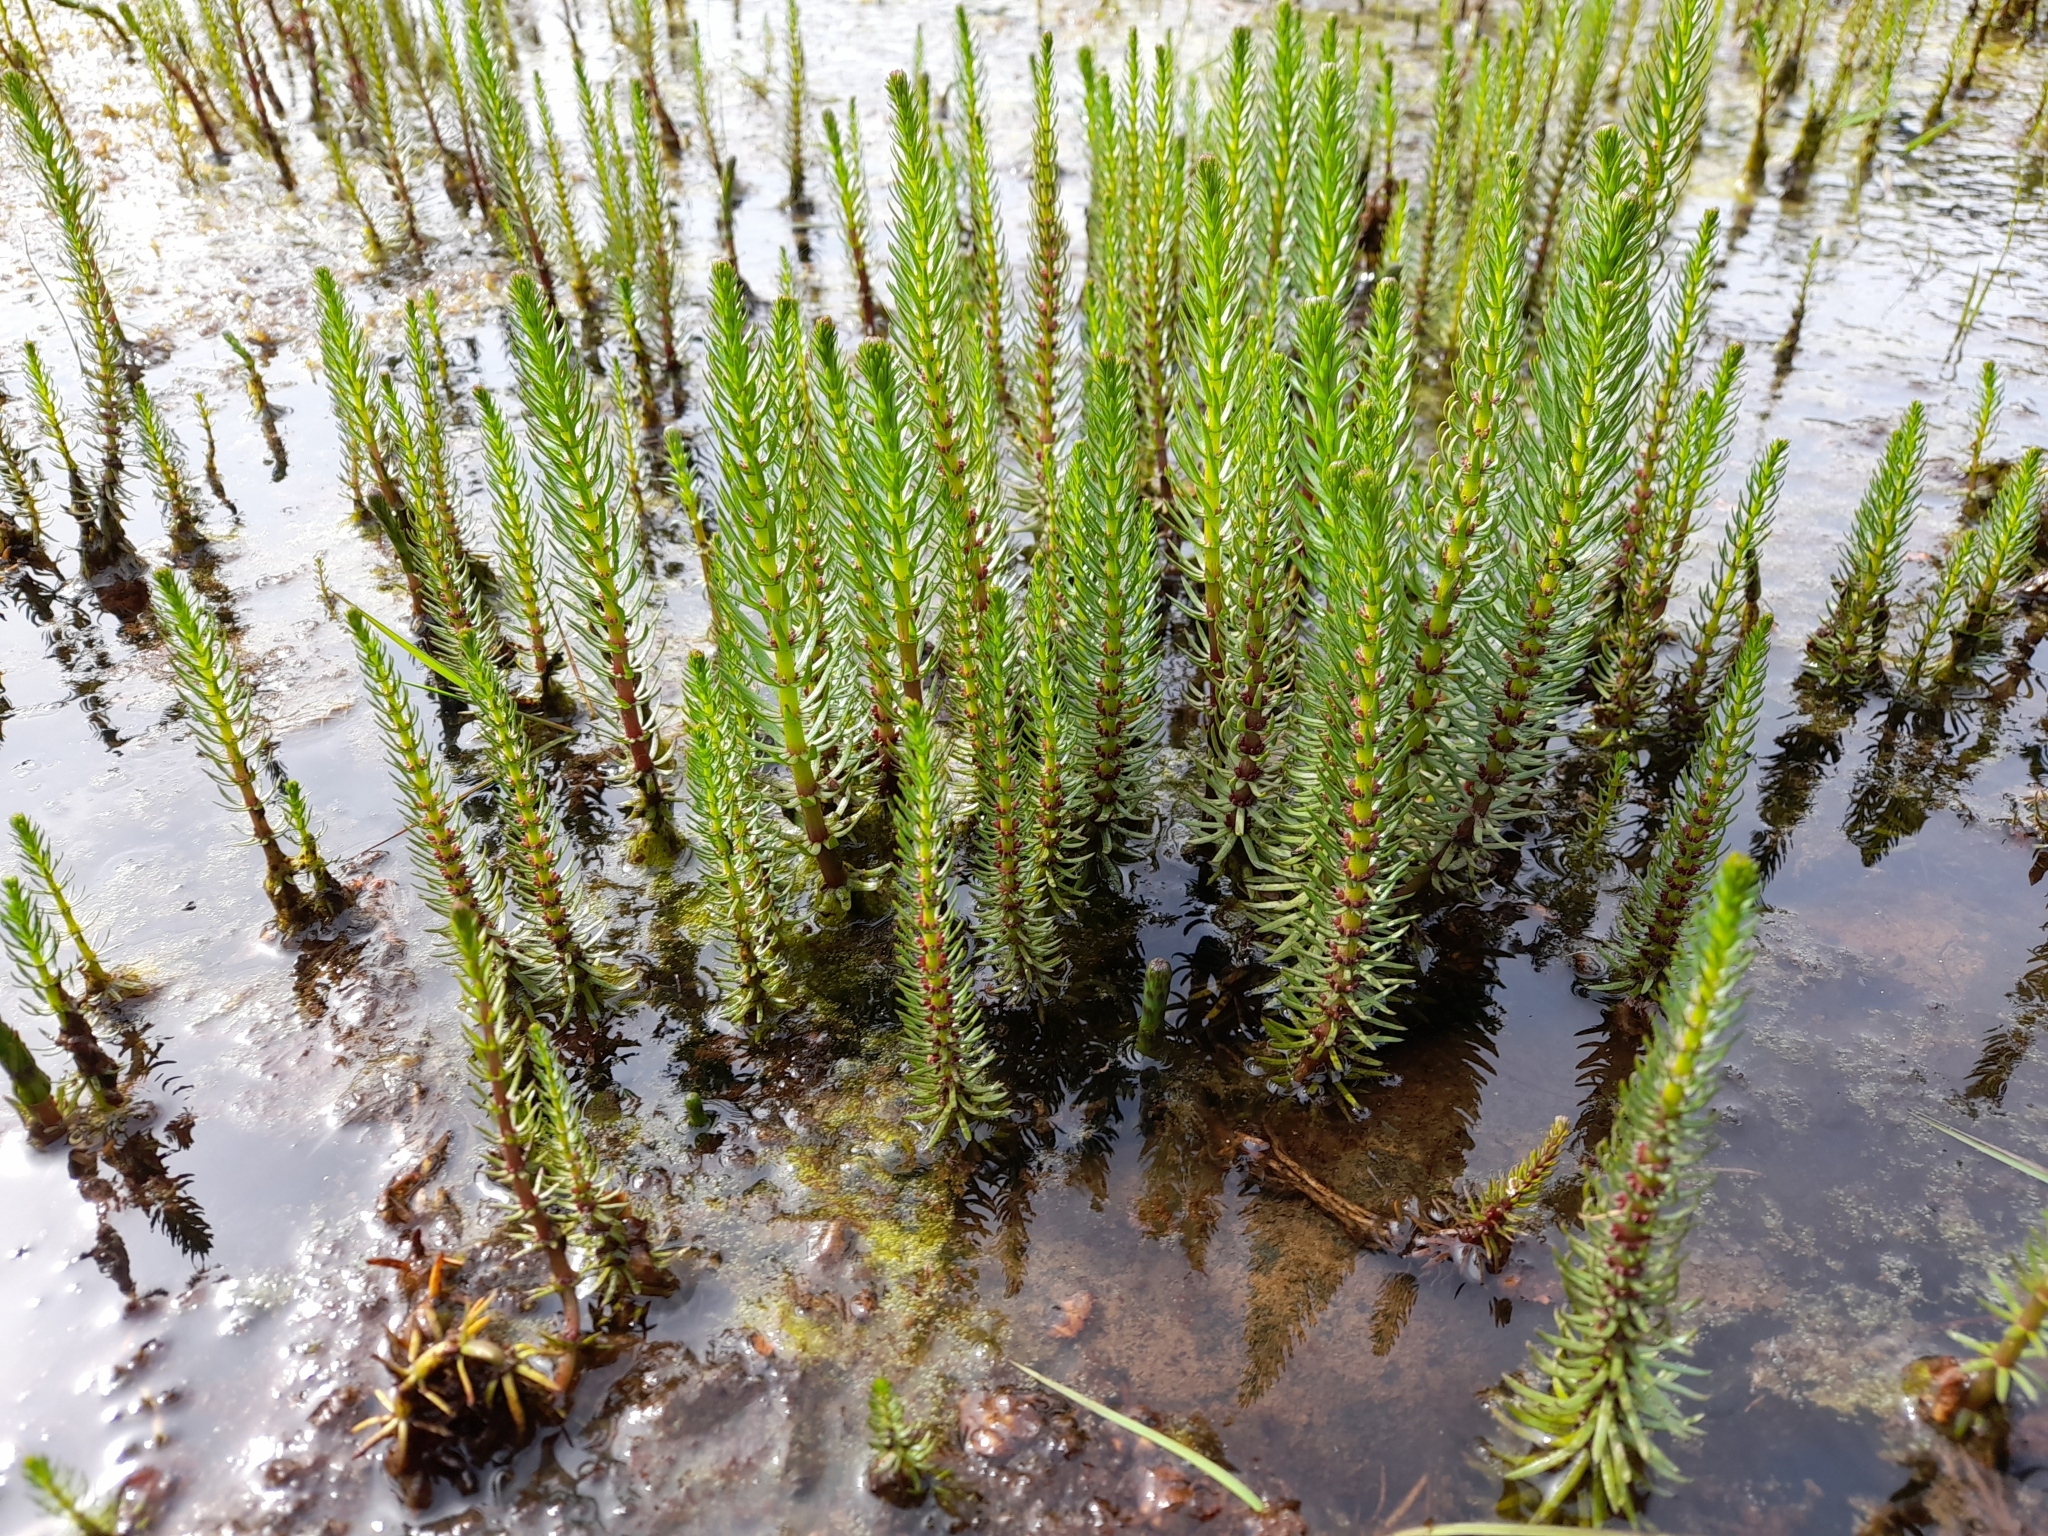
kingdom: Plantae
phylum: Tracheophyta
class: Magnoliopsida
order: Lamiales
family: Plantaginaceae
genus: Hippuris
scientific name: Hippuris vulgaris
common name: Mare's-tail
